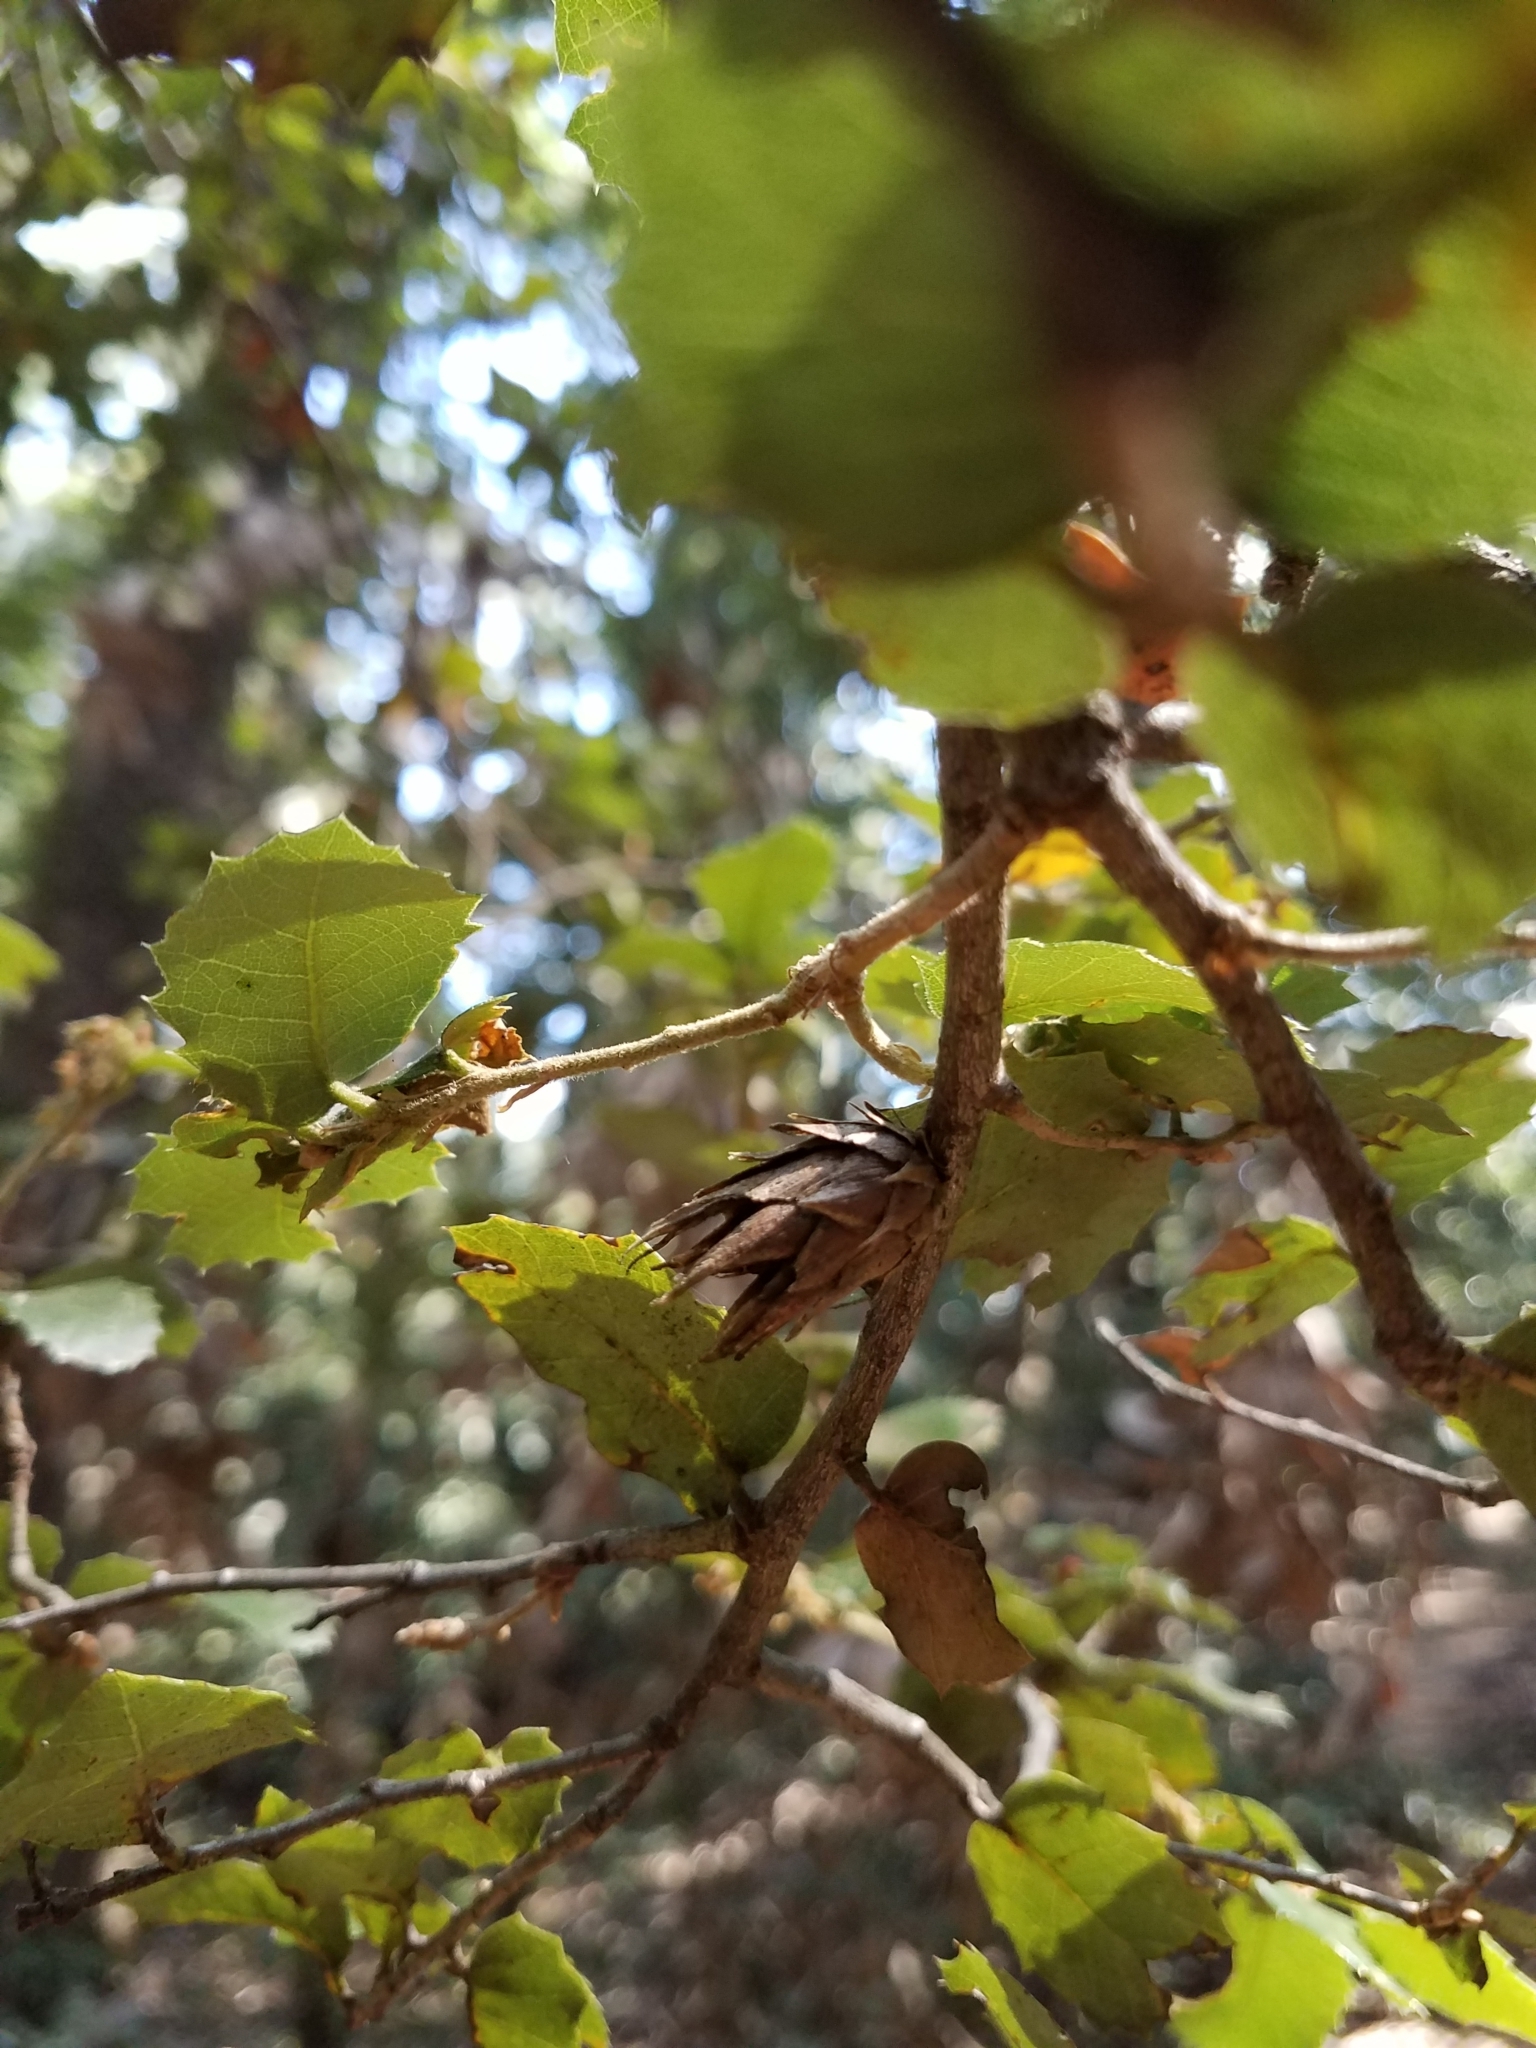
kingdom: Animalia
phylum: Arthropoda
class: Insecta
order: Hymenoptera
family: Cynipidae
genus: Andricus
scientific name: Andricus
